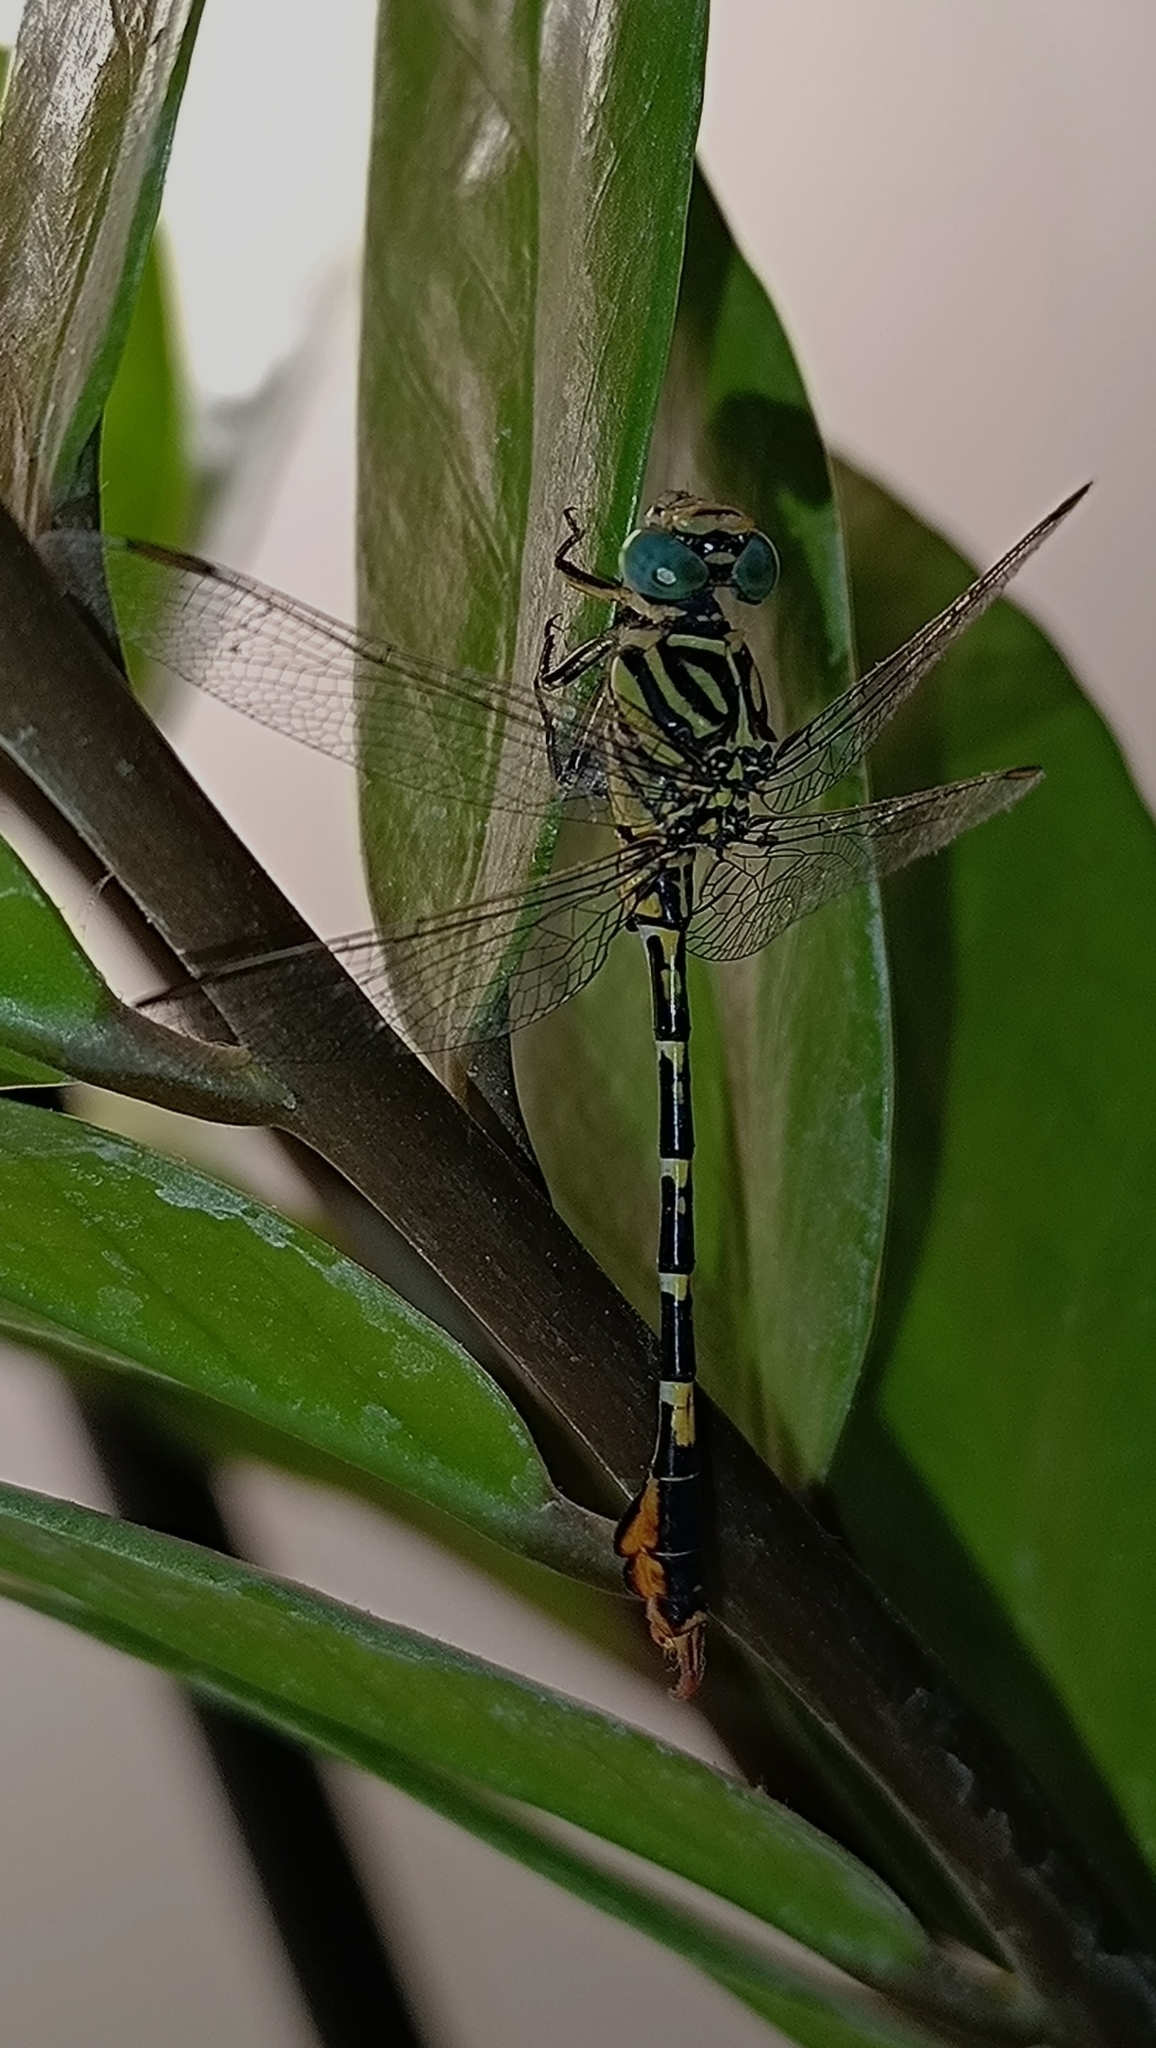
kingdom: Animalia
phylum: Arthropoda
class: Insecta
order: Odonata
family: Gomphidae
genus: Paragomphus
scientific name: Paragomphus lineatus
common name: Lined hooktail
